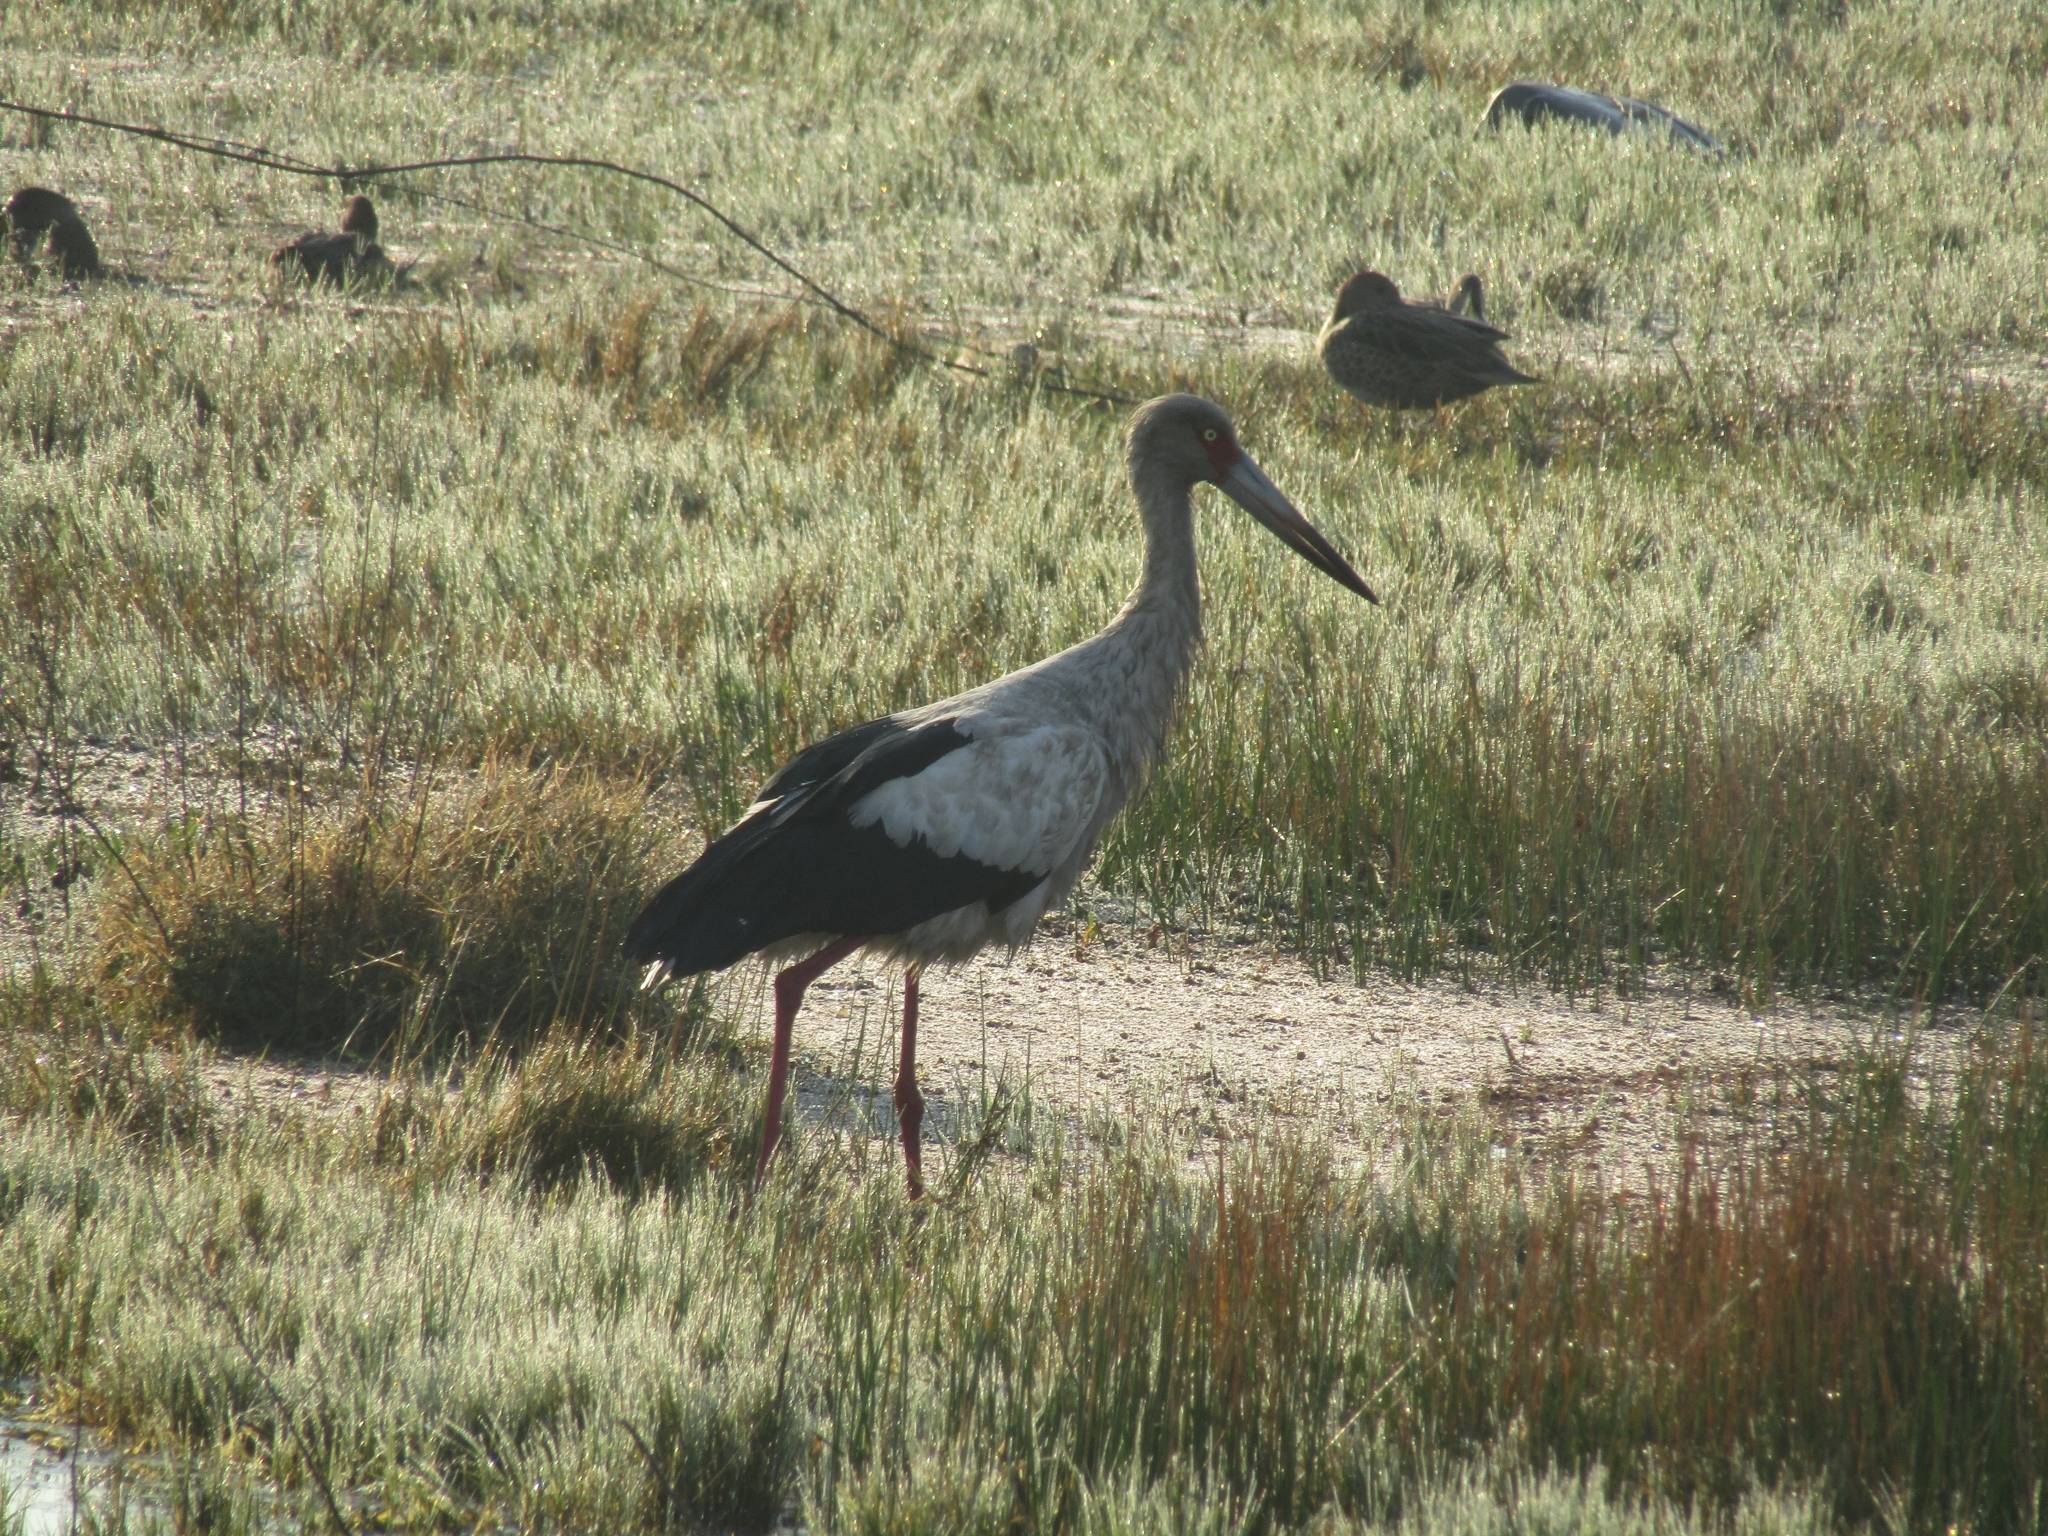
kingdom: Animalia
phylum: Chordata
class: Aves
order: Ciconiiformes
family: Ciconiidae
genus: Ciconia
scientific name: Ciconia maguari
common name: Maguari stork
